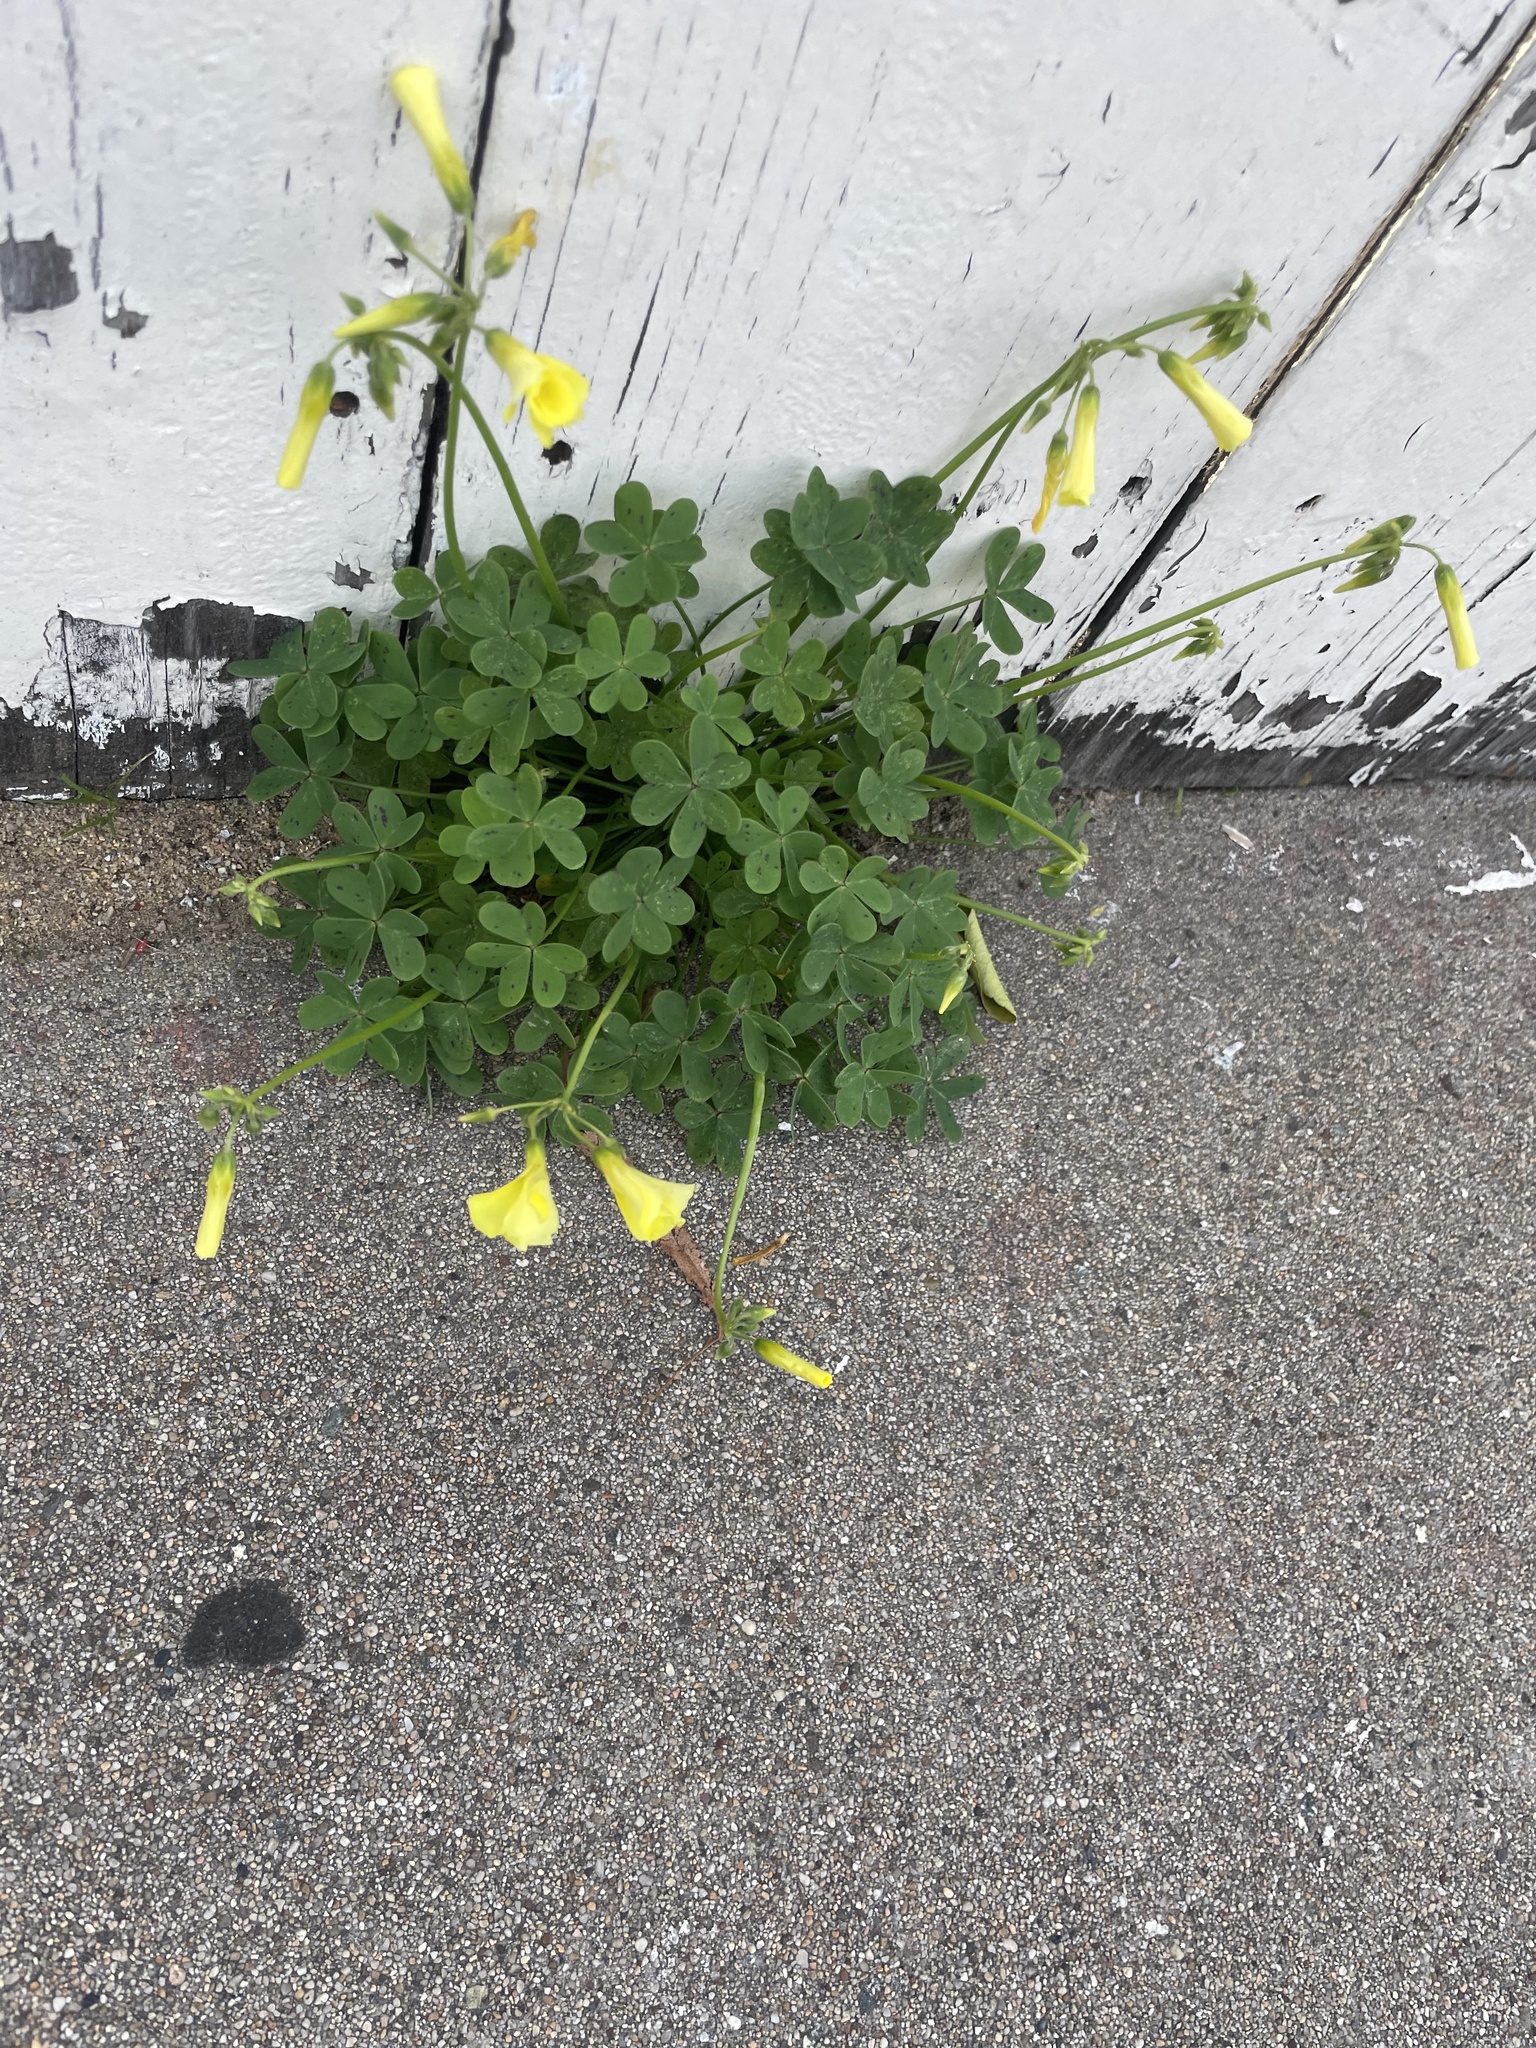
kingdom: Plantae
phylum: Tracheophyta
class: Magnoliopsida
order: Oxalidales
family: Oxalidaceae
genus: Oxalis
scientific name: Oxalis pes-caprae
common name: Bermuda-buttercup
